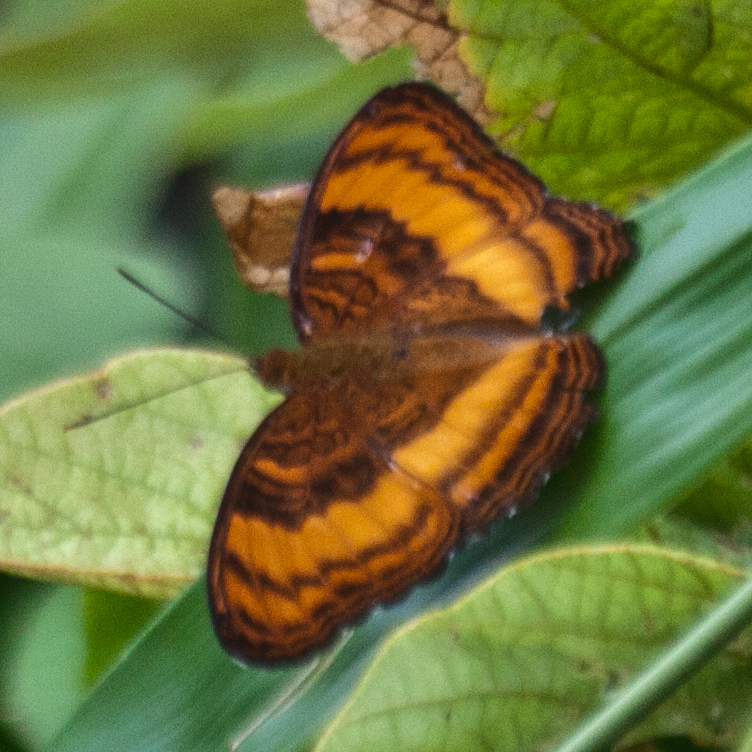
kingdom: Animalia
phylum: Arthropoda
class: Insecta
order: Lepidoptera
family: Nymphalidae
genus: Pandita
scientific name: Pandita sinope
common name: Colonel
